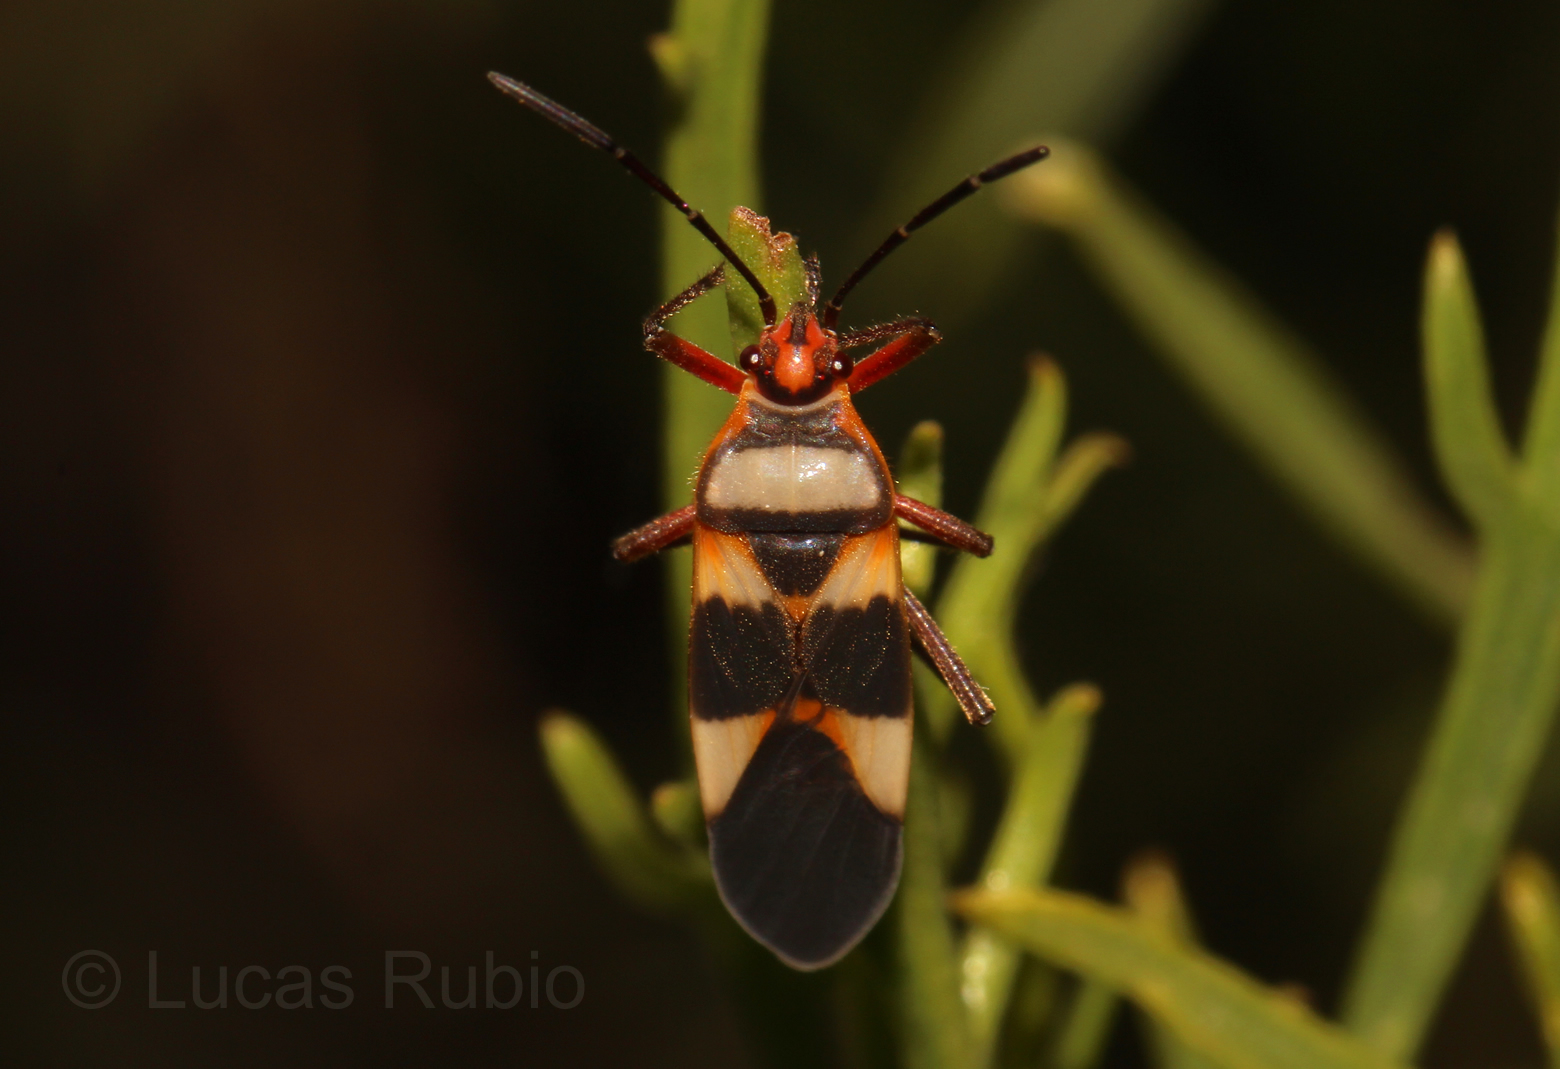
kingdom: Animalia
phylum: Arthropoda
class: Insecta
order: Hemiptera
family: Lygaeidae
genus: Oncopeltus
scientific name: Oncopeltus unifasciatellus
